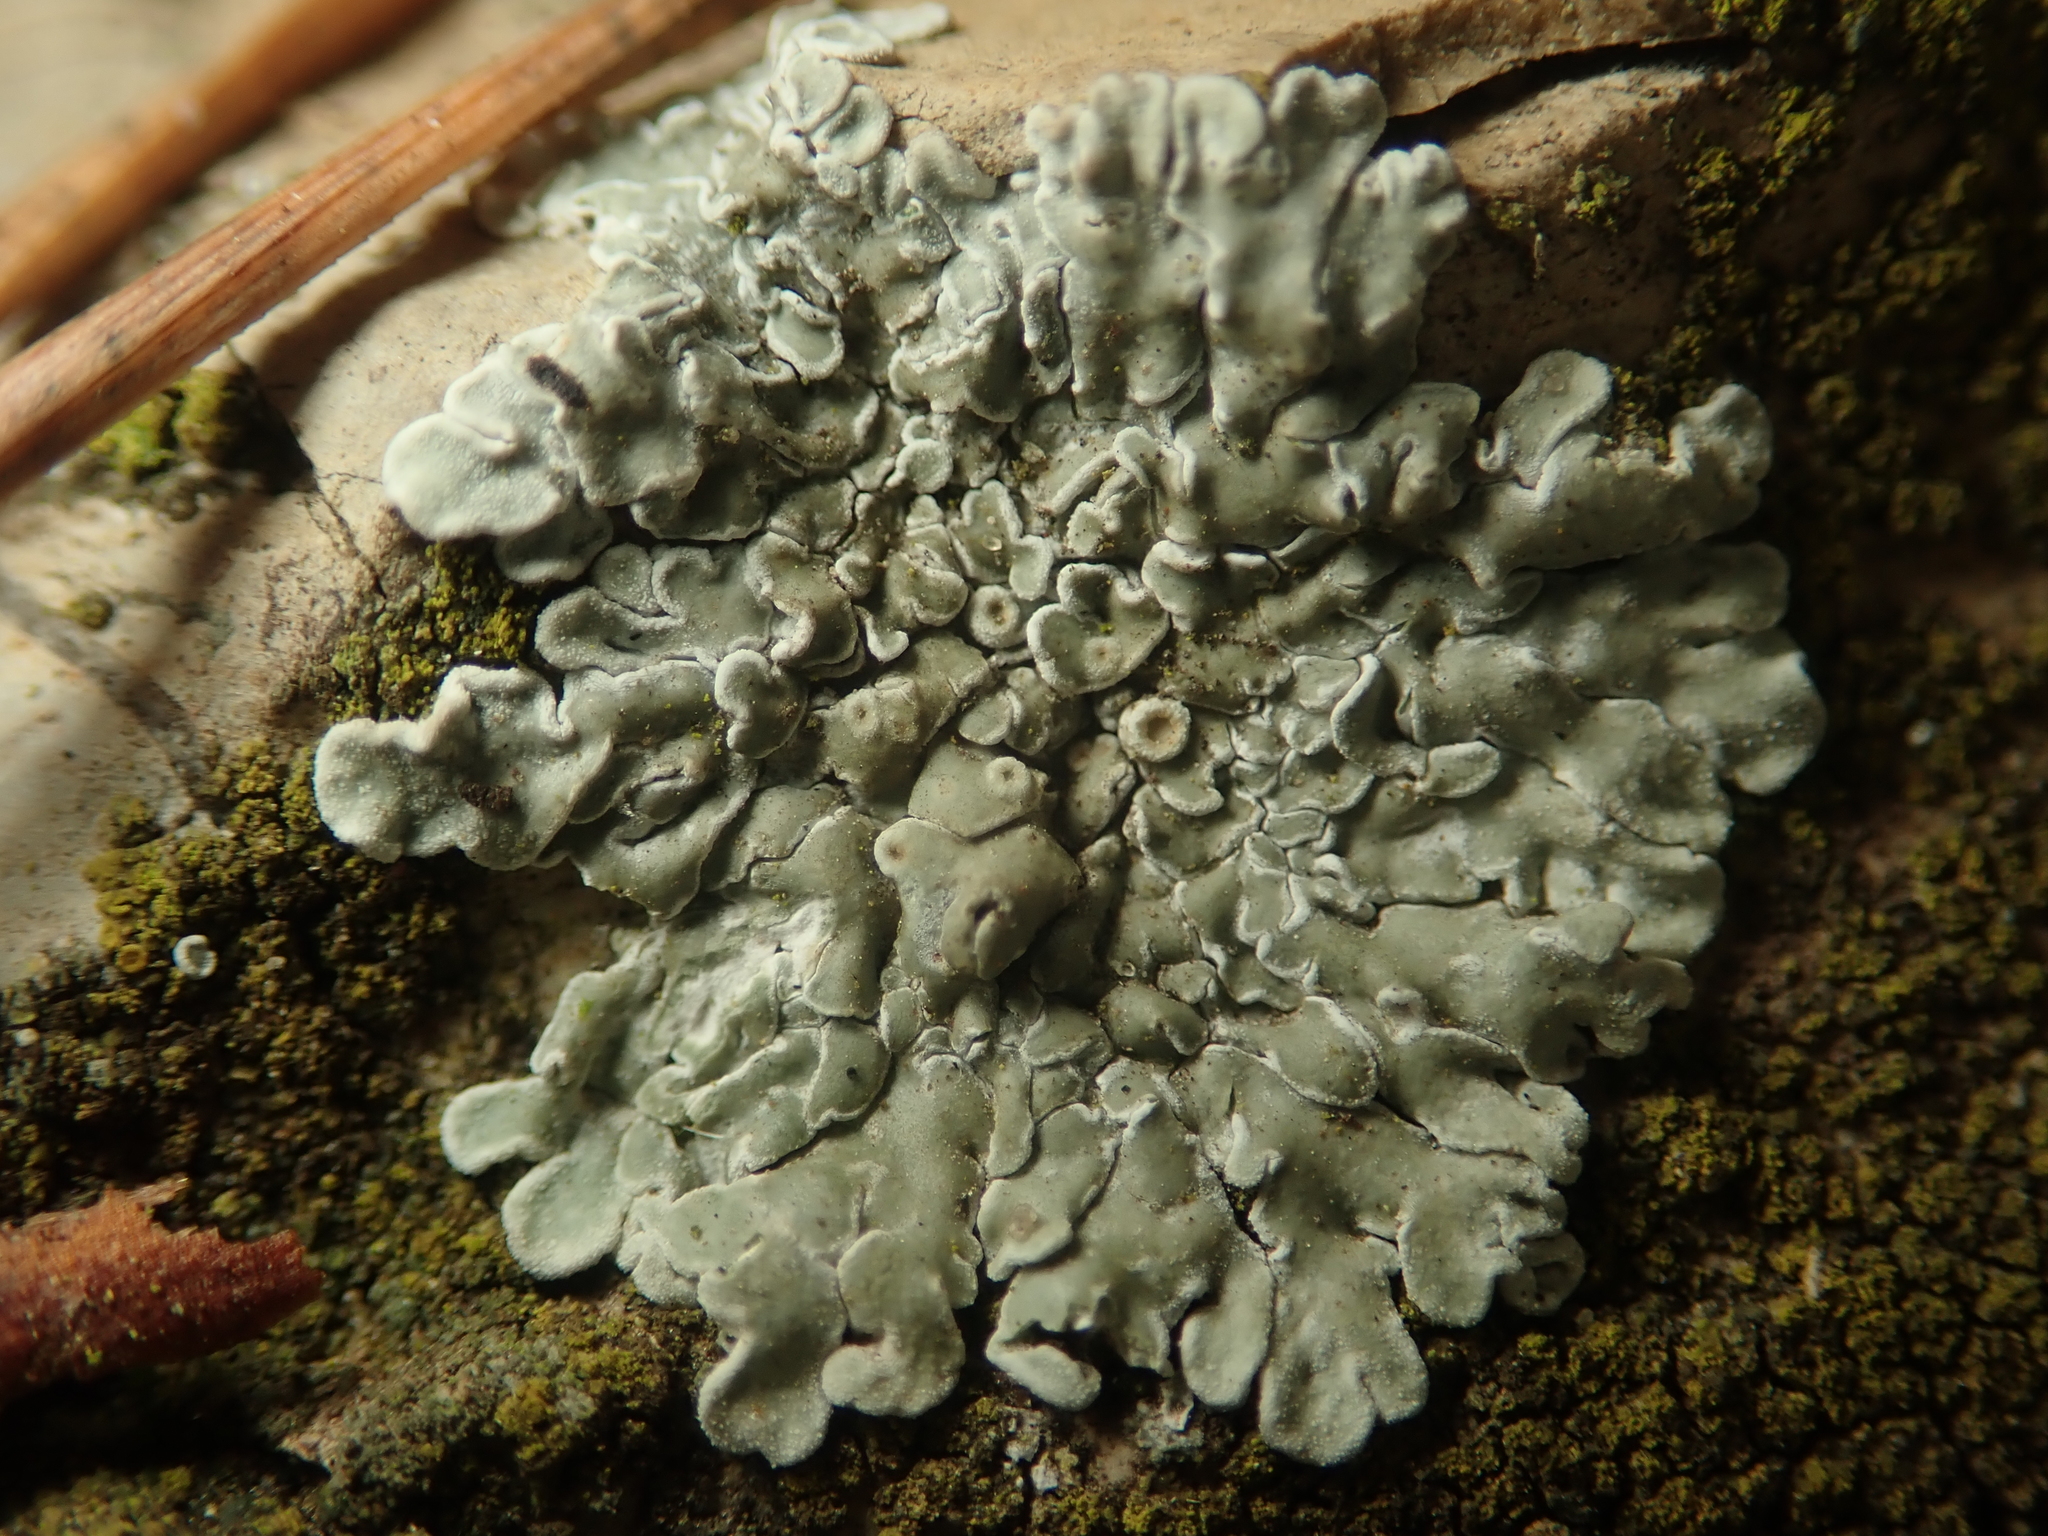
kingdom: Fungi
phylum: Ascomycota
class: Lecanoromycetes
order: Lecanorales
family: Lecanoraceae
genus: Protoparmeliopsis
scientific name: Protoparmeliopsis muralis
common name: Stonewall rim lichen
